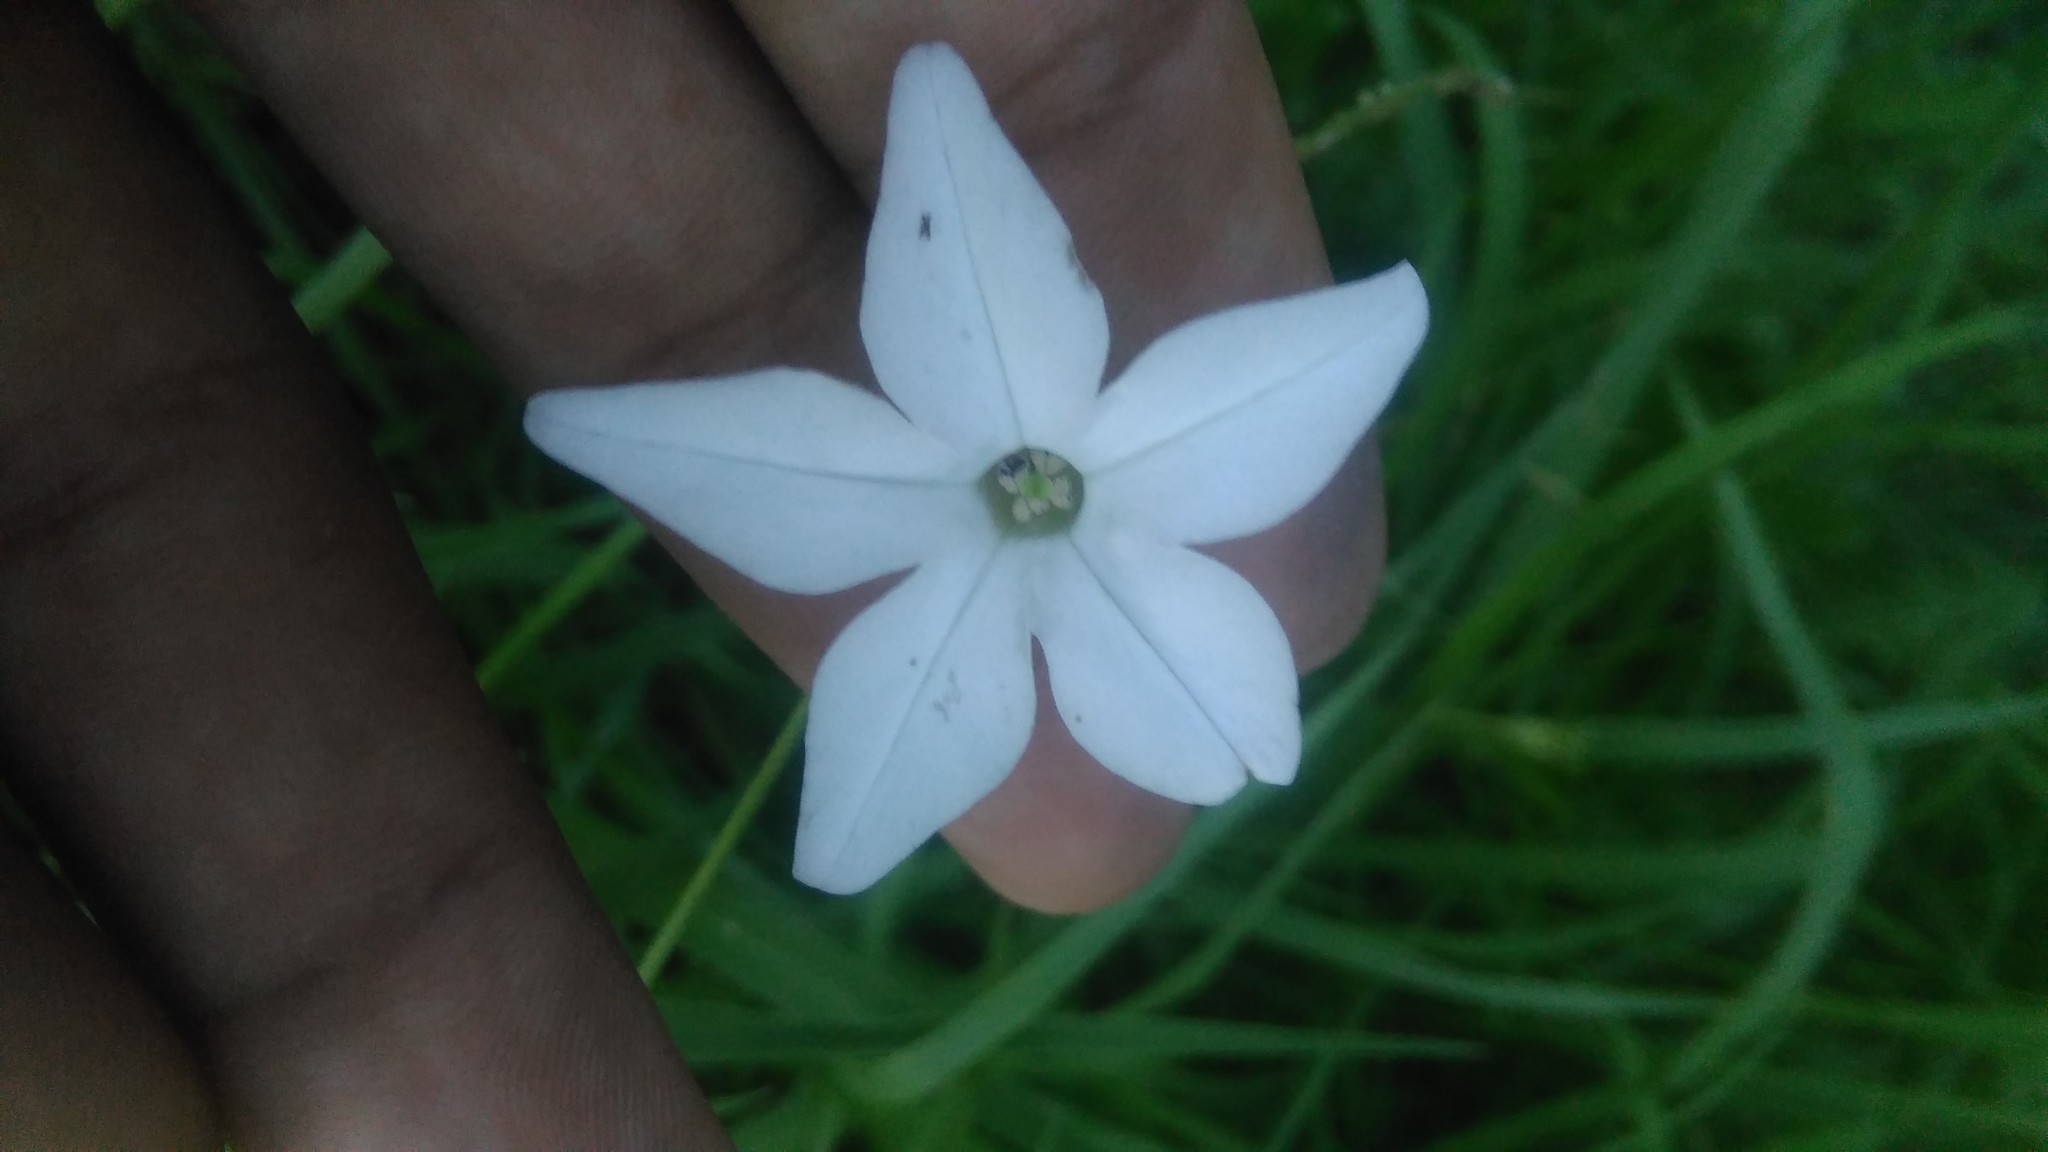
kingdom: Plantae
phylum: Tracheophyta
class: Magnoliopsida
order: Solanales
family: Solanaceae
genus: Nicotiana
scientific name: Nicotiana longiflora
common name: Long-flowered tobacco
